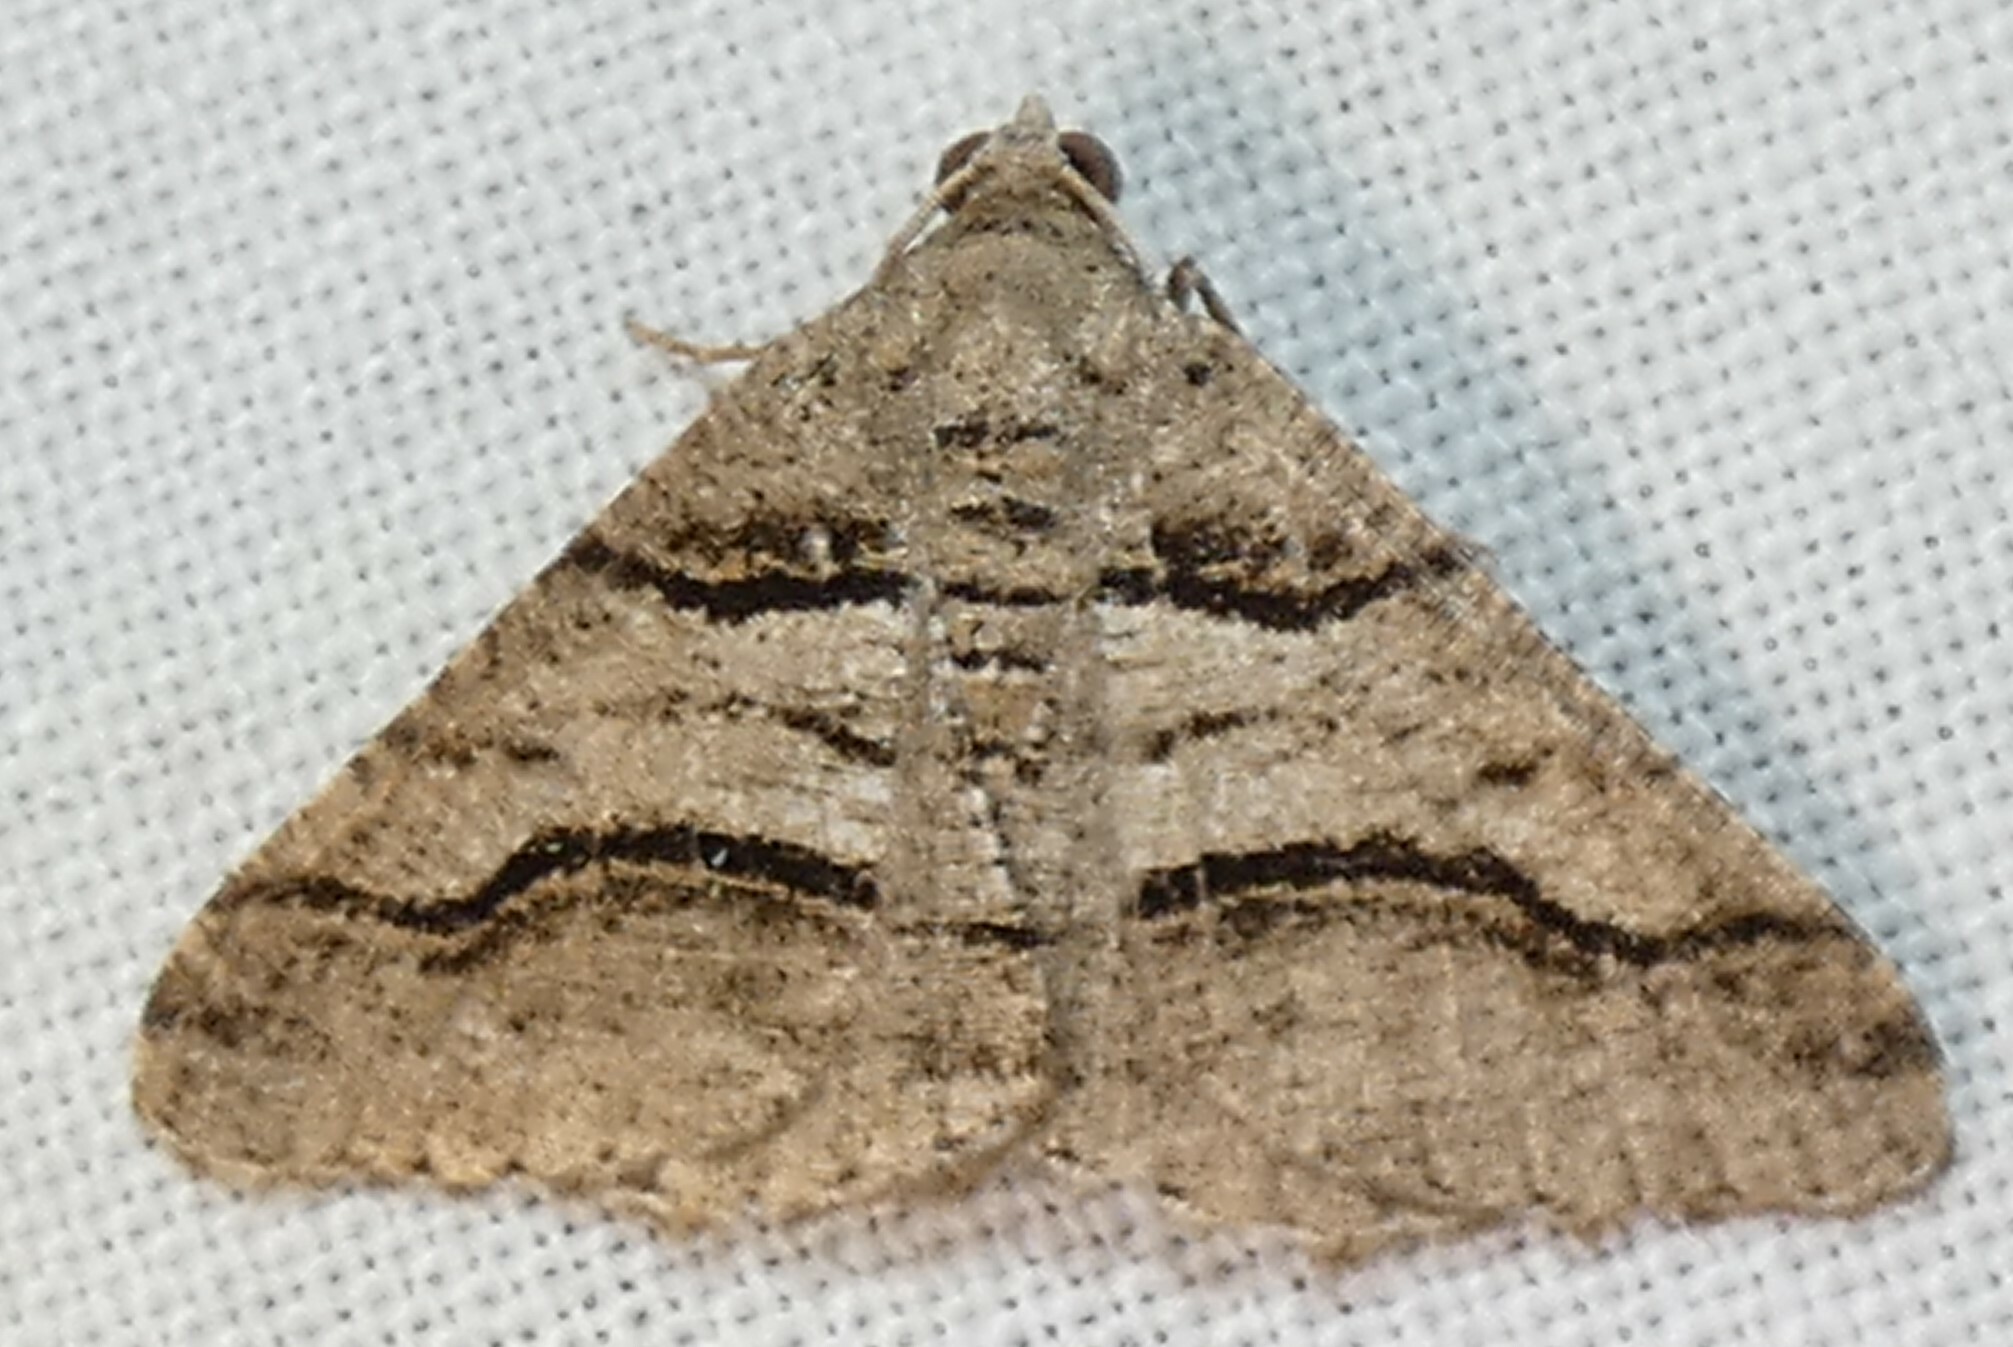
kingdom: Animalia
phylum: Arthropoda
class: Insecta
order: Lepidoptera
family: Geometridae
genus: Digrammia
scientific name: Digrammia continuata
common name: Curve-lined angle
